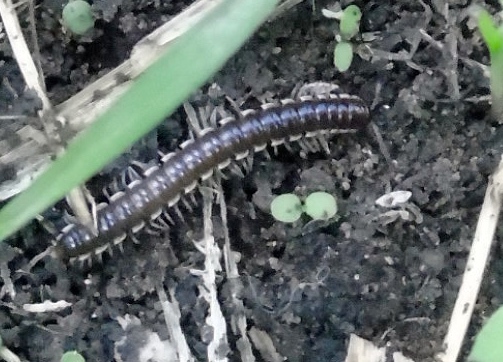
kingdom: Animalia
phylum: Arthropoda
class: Diplopoda
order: Polydesmida
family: Paradoxosomatidae
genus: Orthomorpha
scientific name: Orthomorpha coarctata
